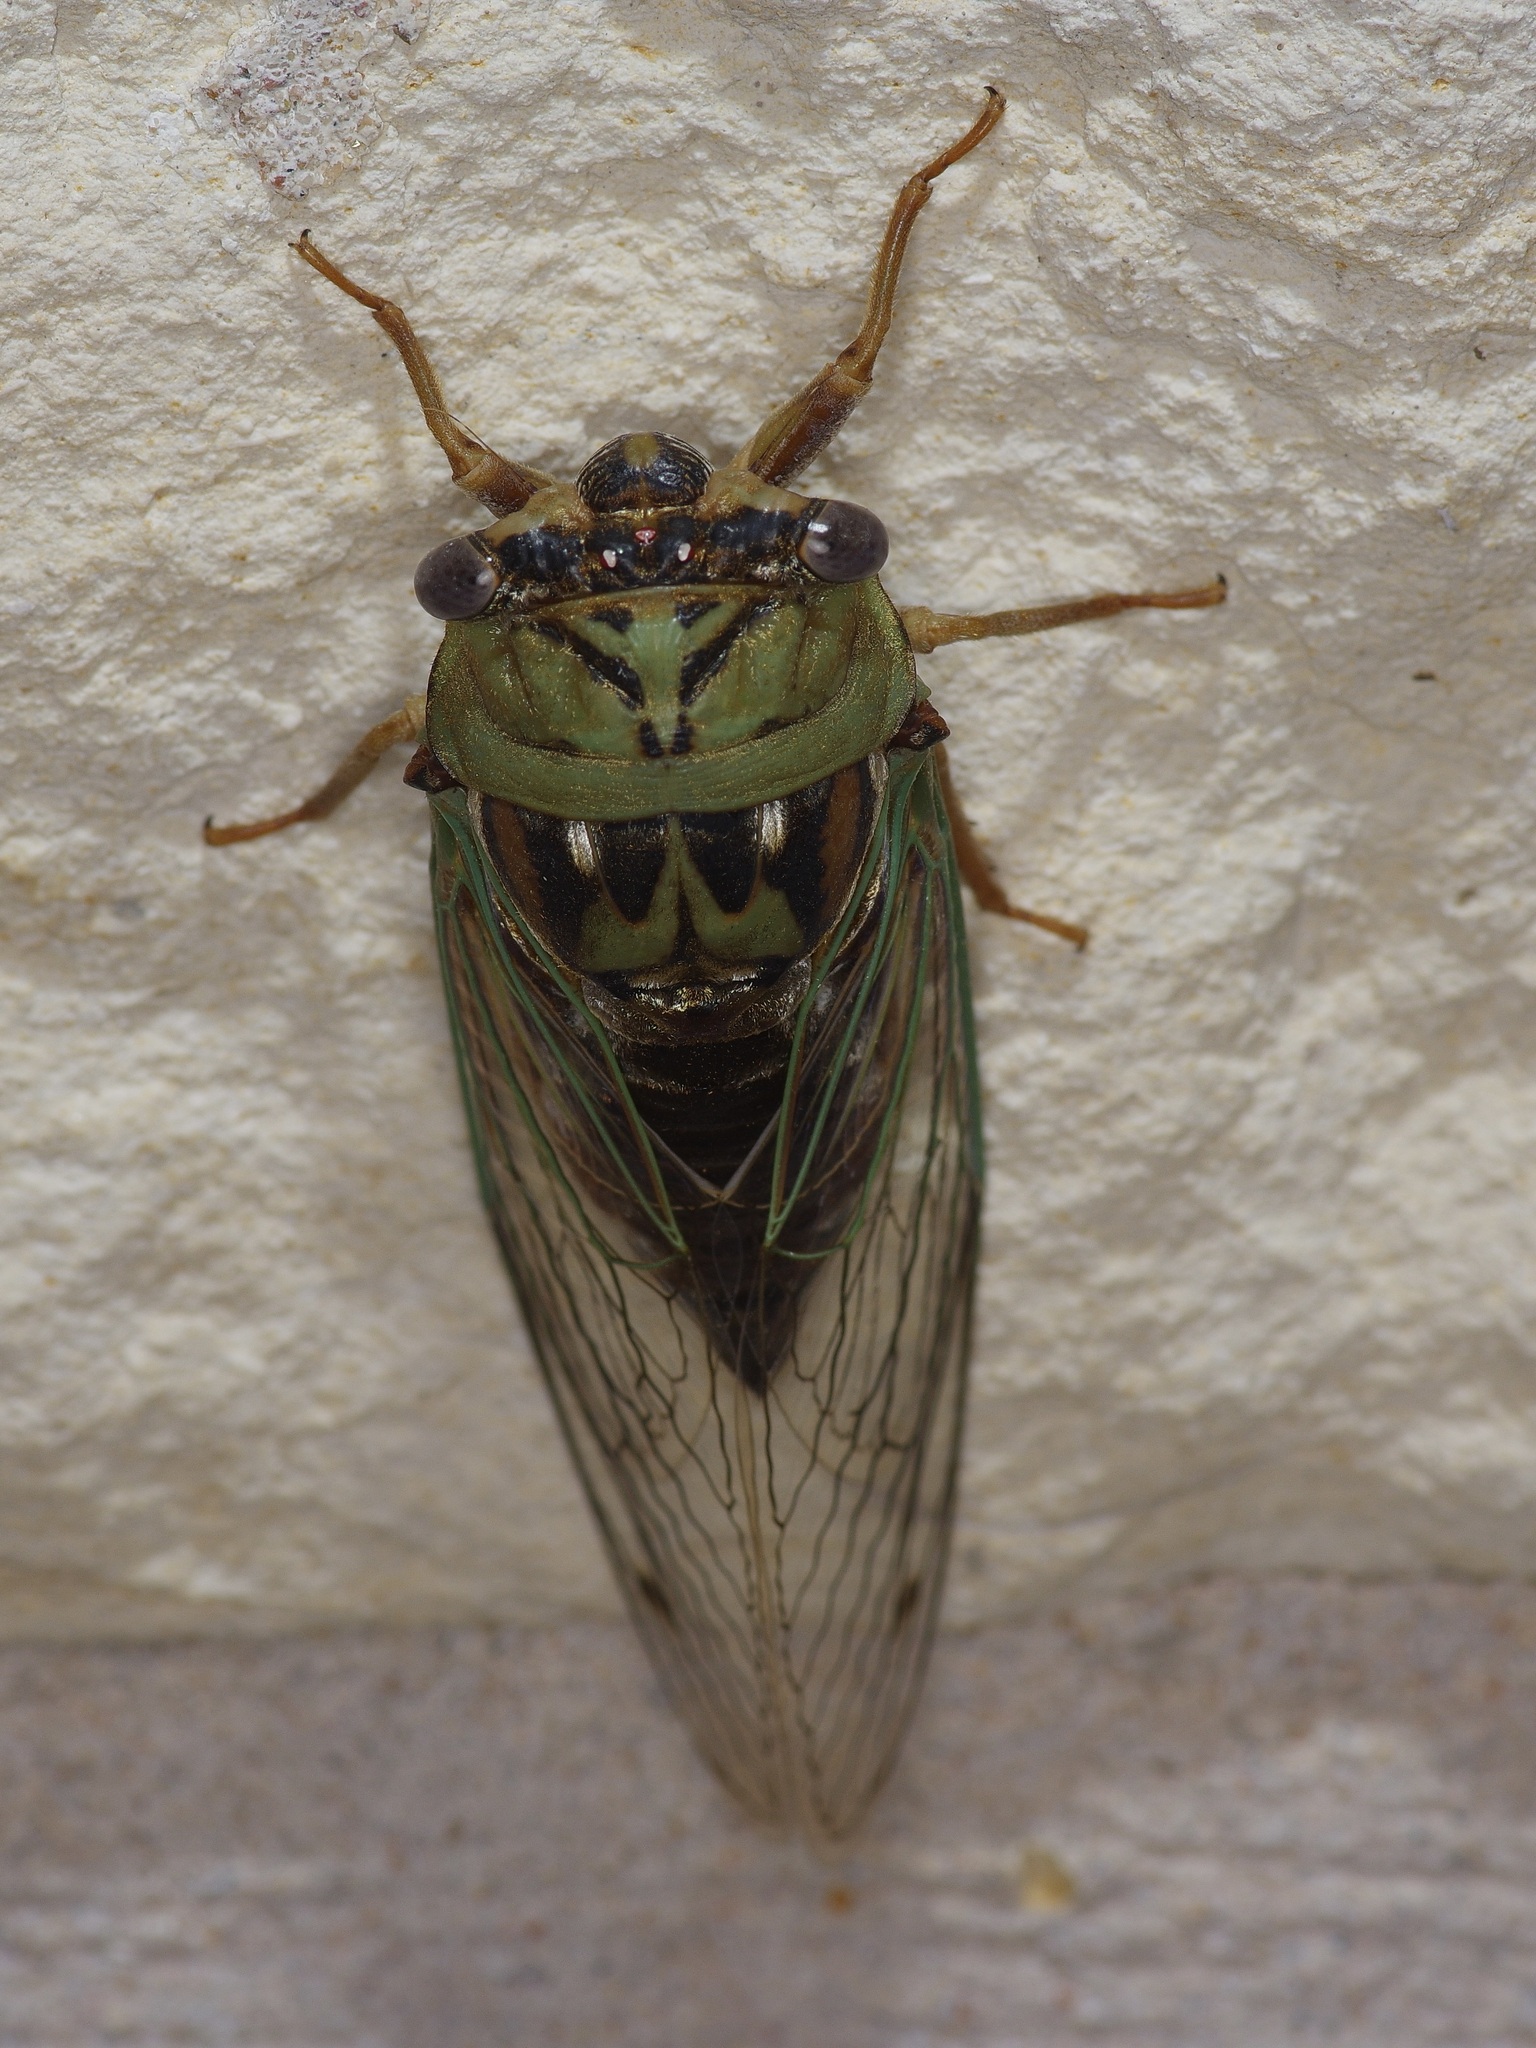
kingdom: Animalia
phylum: Arthropoda
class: Insecta
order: Hemiptera
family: Cicadidae
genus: Megatibicen
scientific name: Megatibicen resh
